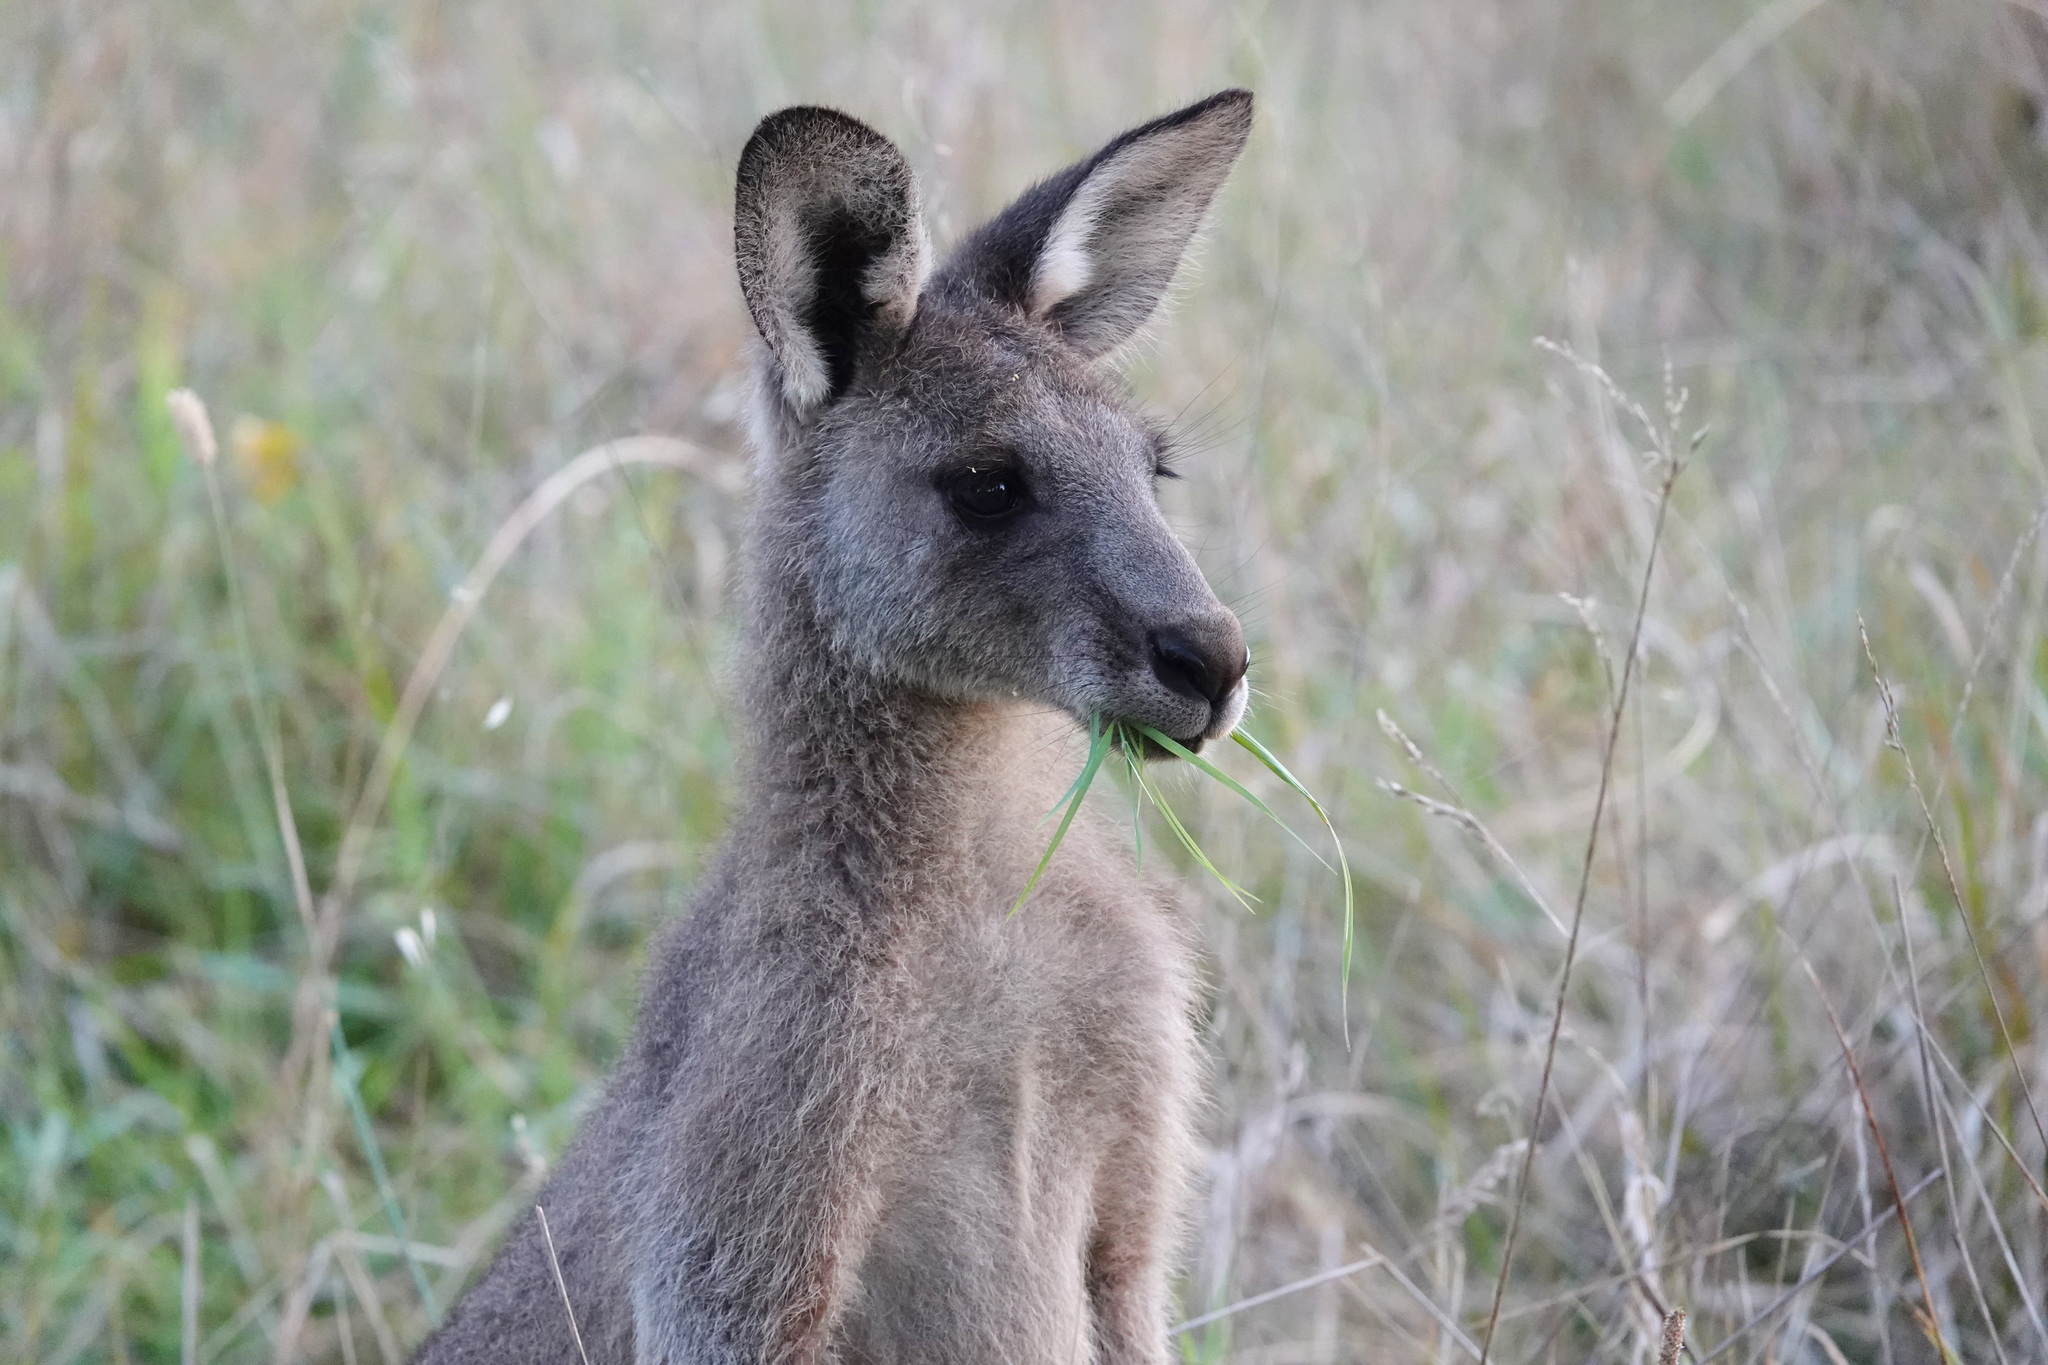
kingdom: Animalia
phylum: Chordata
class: Mammalia
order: Diprotodontia
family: Macropodidae
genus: Macropus
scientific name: Macropus giganteus
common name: Eastern grey kangaroo
